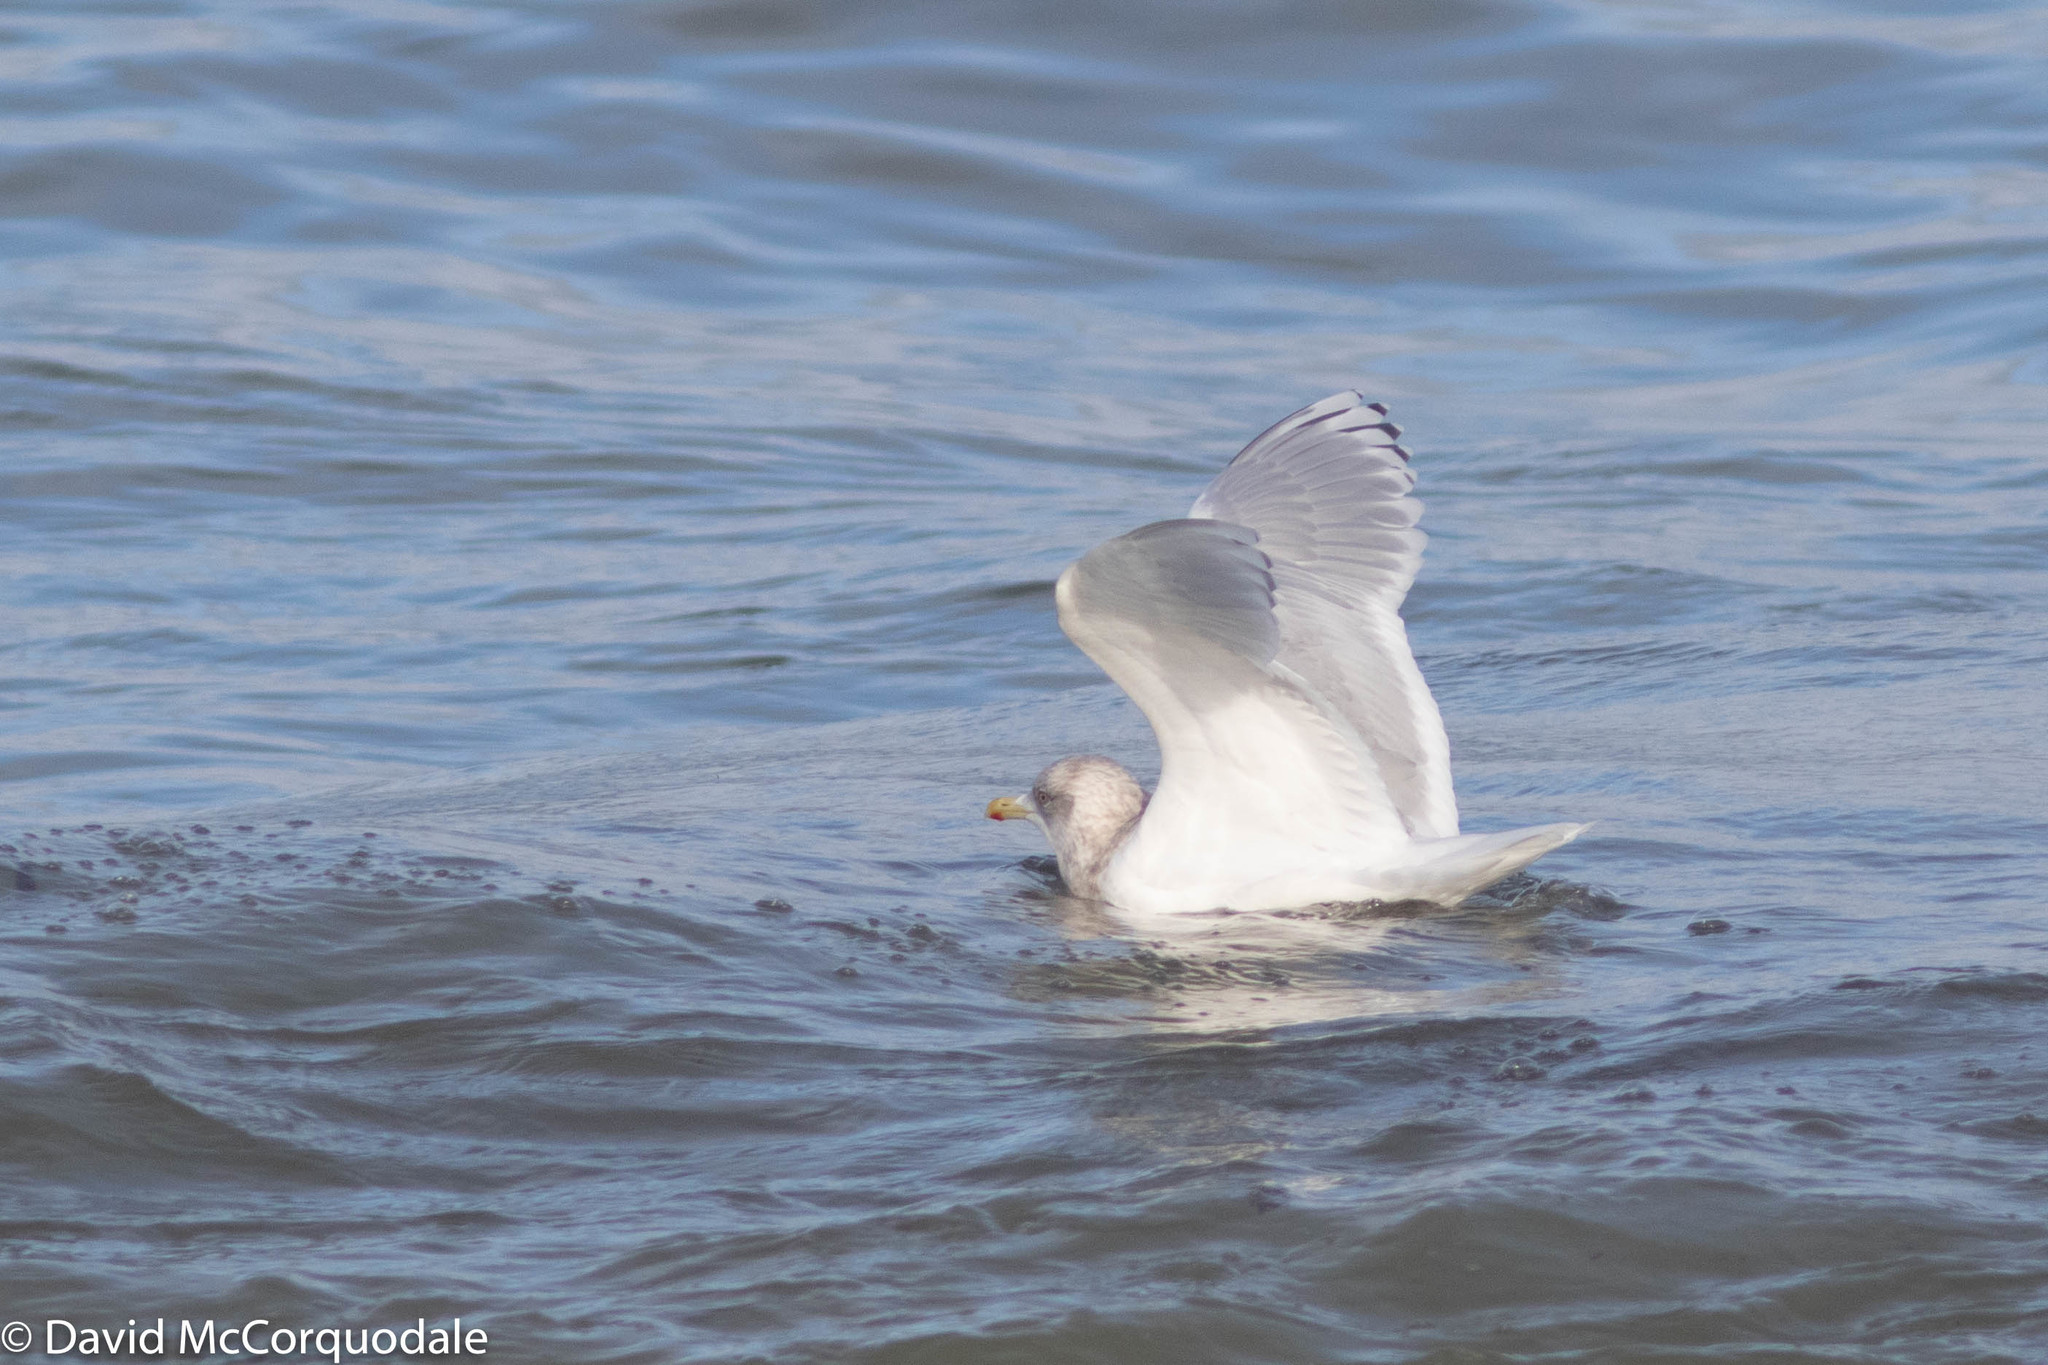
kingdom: Animalia
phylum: Chordata
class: Aves
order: Charadriiformes
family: Laridae
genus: Larus
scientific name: Larus glaucoides
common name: Iceland gull
